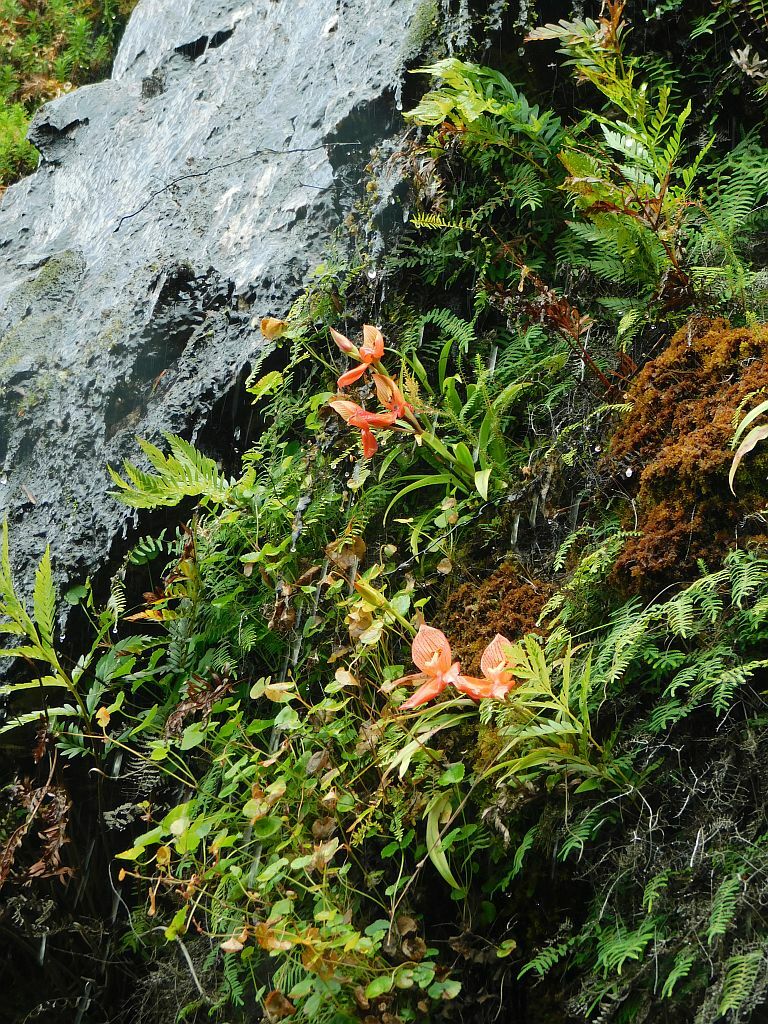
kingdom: Plantae
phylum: Tracheophyta
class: Liliopsida
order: Asparagales
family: Orchidaceae
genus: Disa
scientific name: Disa uniflora
